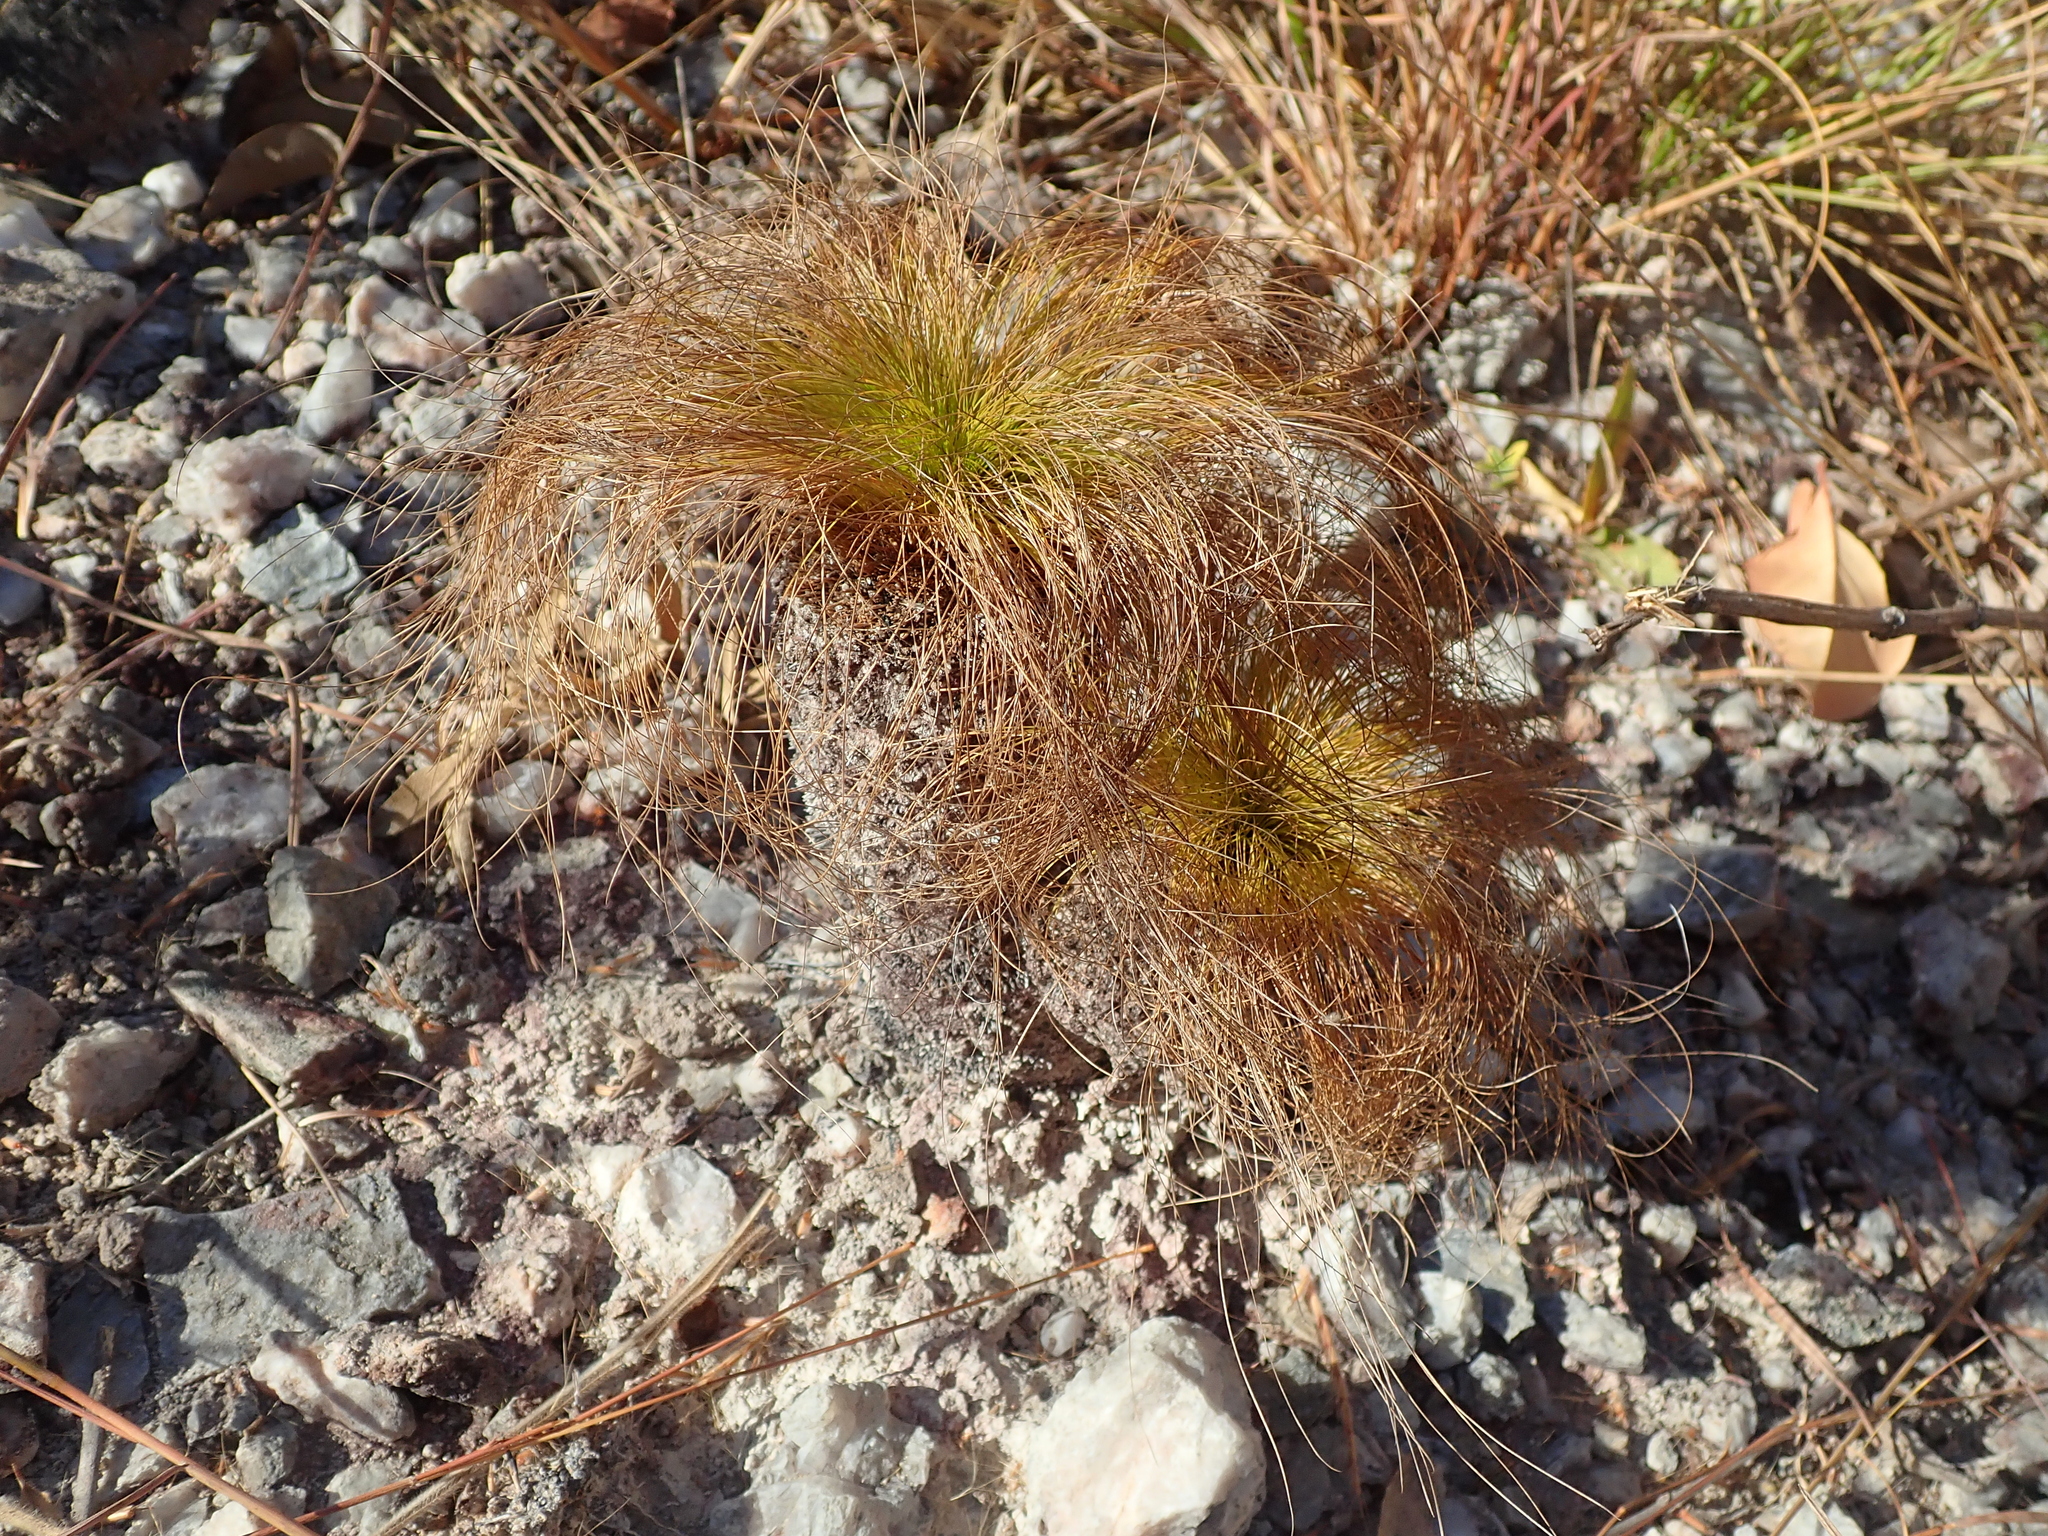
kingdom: Plantae
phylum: Tracheophyta
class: Liliopsida
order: Poales
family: Cyperaceae
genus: Bulbostylis
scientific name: Bulbostylis paradoxa
